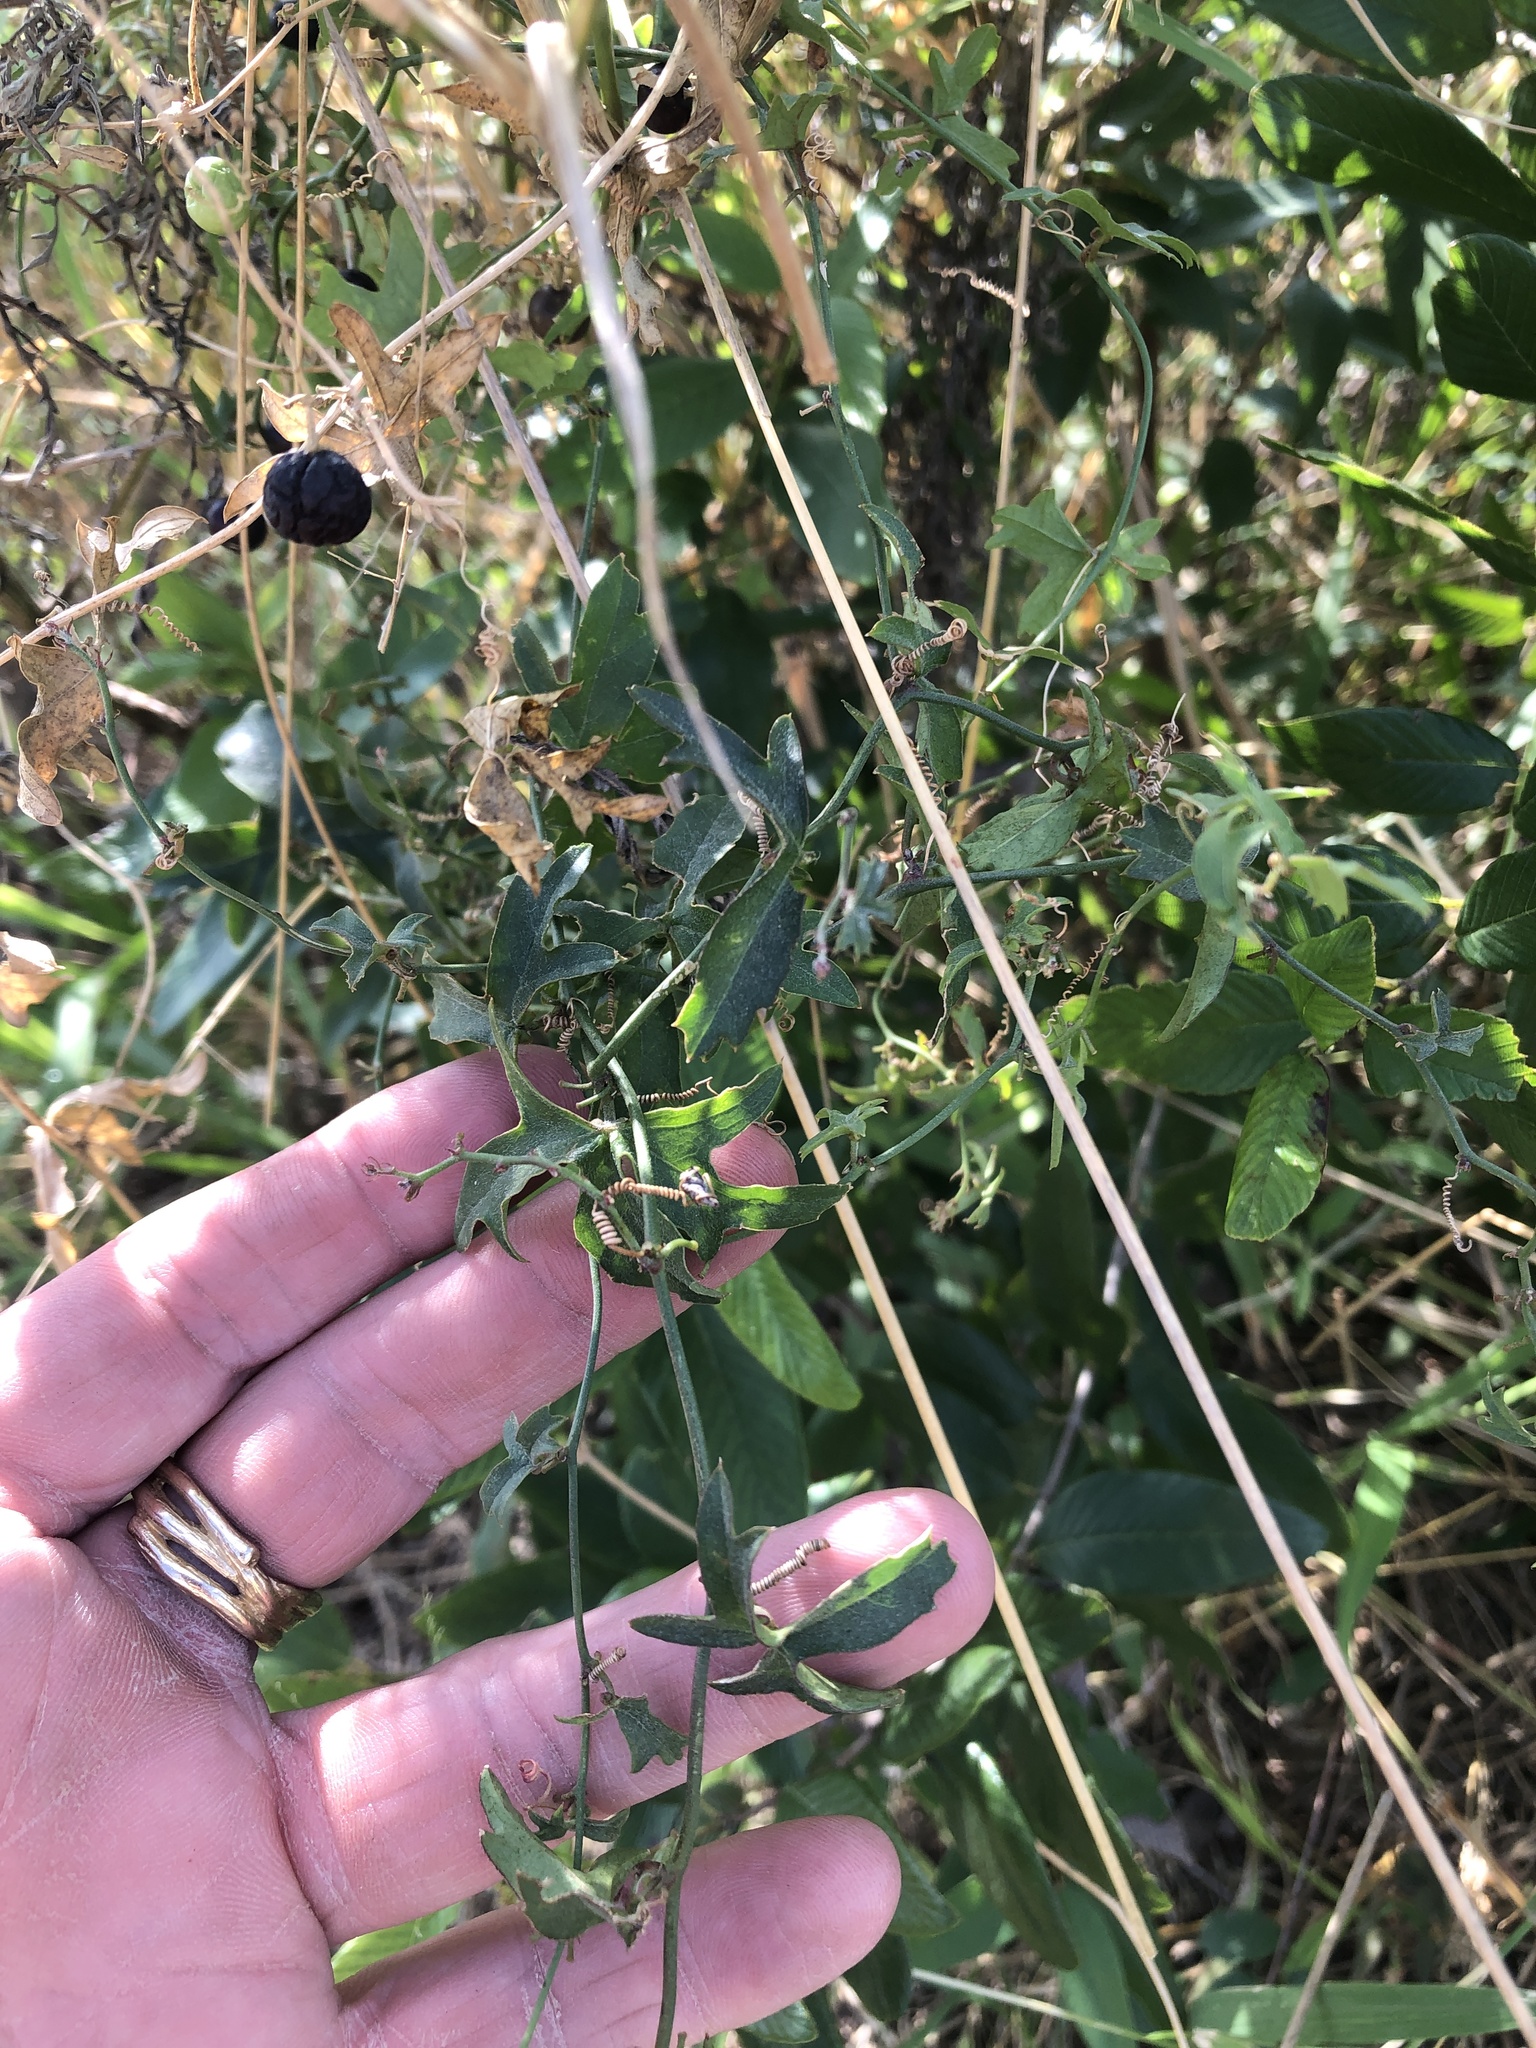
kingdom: Plantae
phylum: Tracheophyta
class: Magnoliopsida
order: Malpighiales
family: Passifloraceae
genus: Passiflora
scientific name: Passiflora tenuiloba
